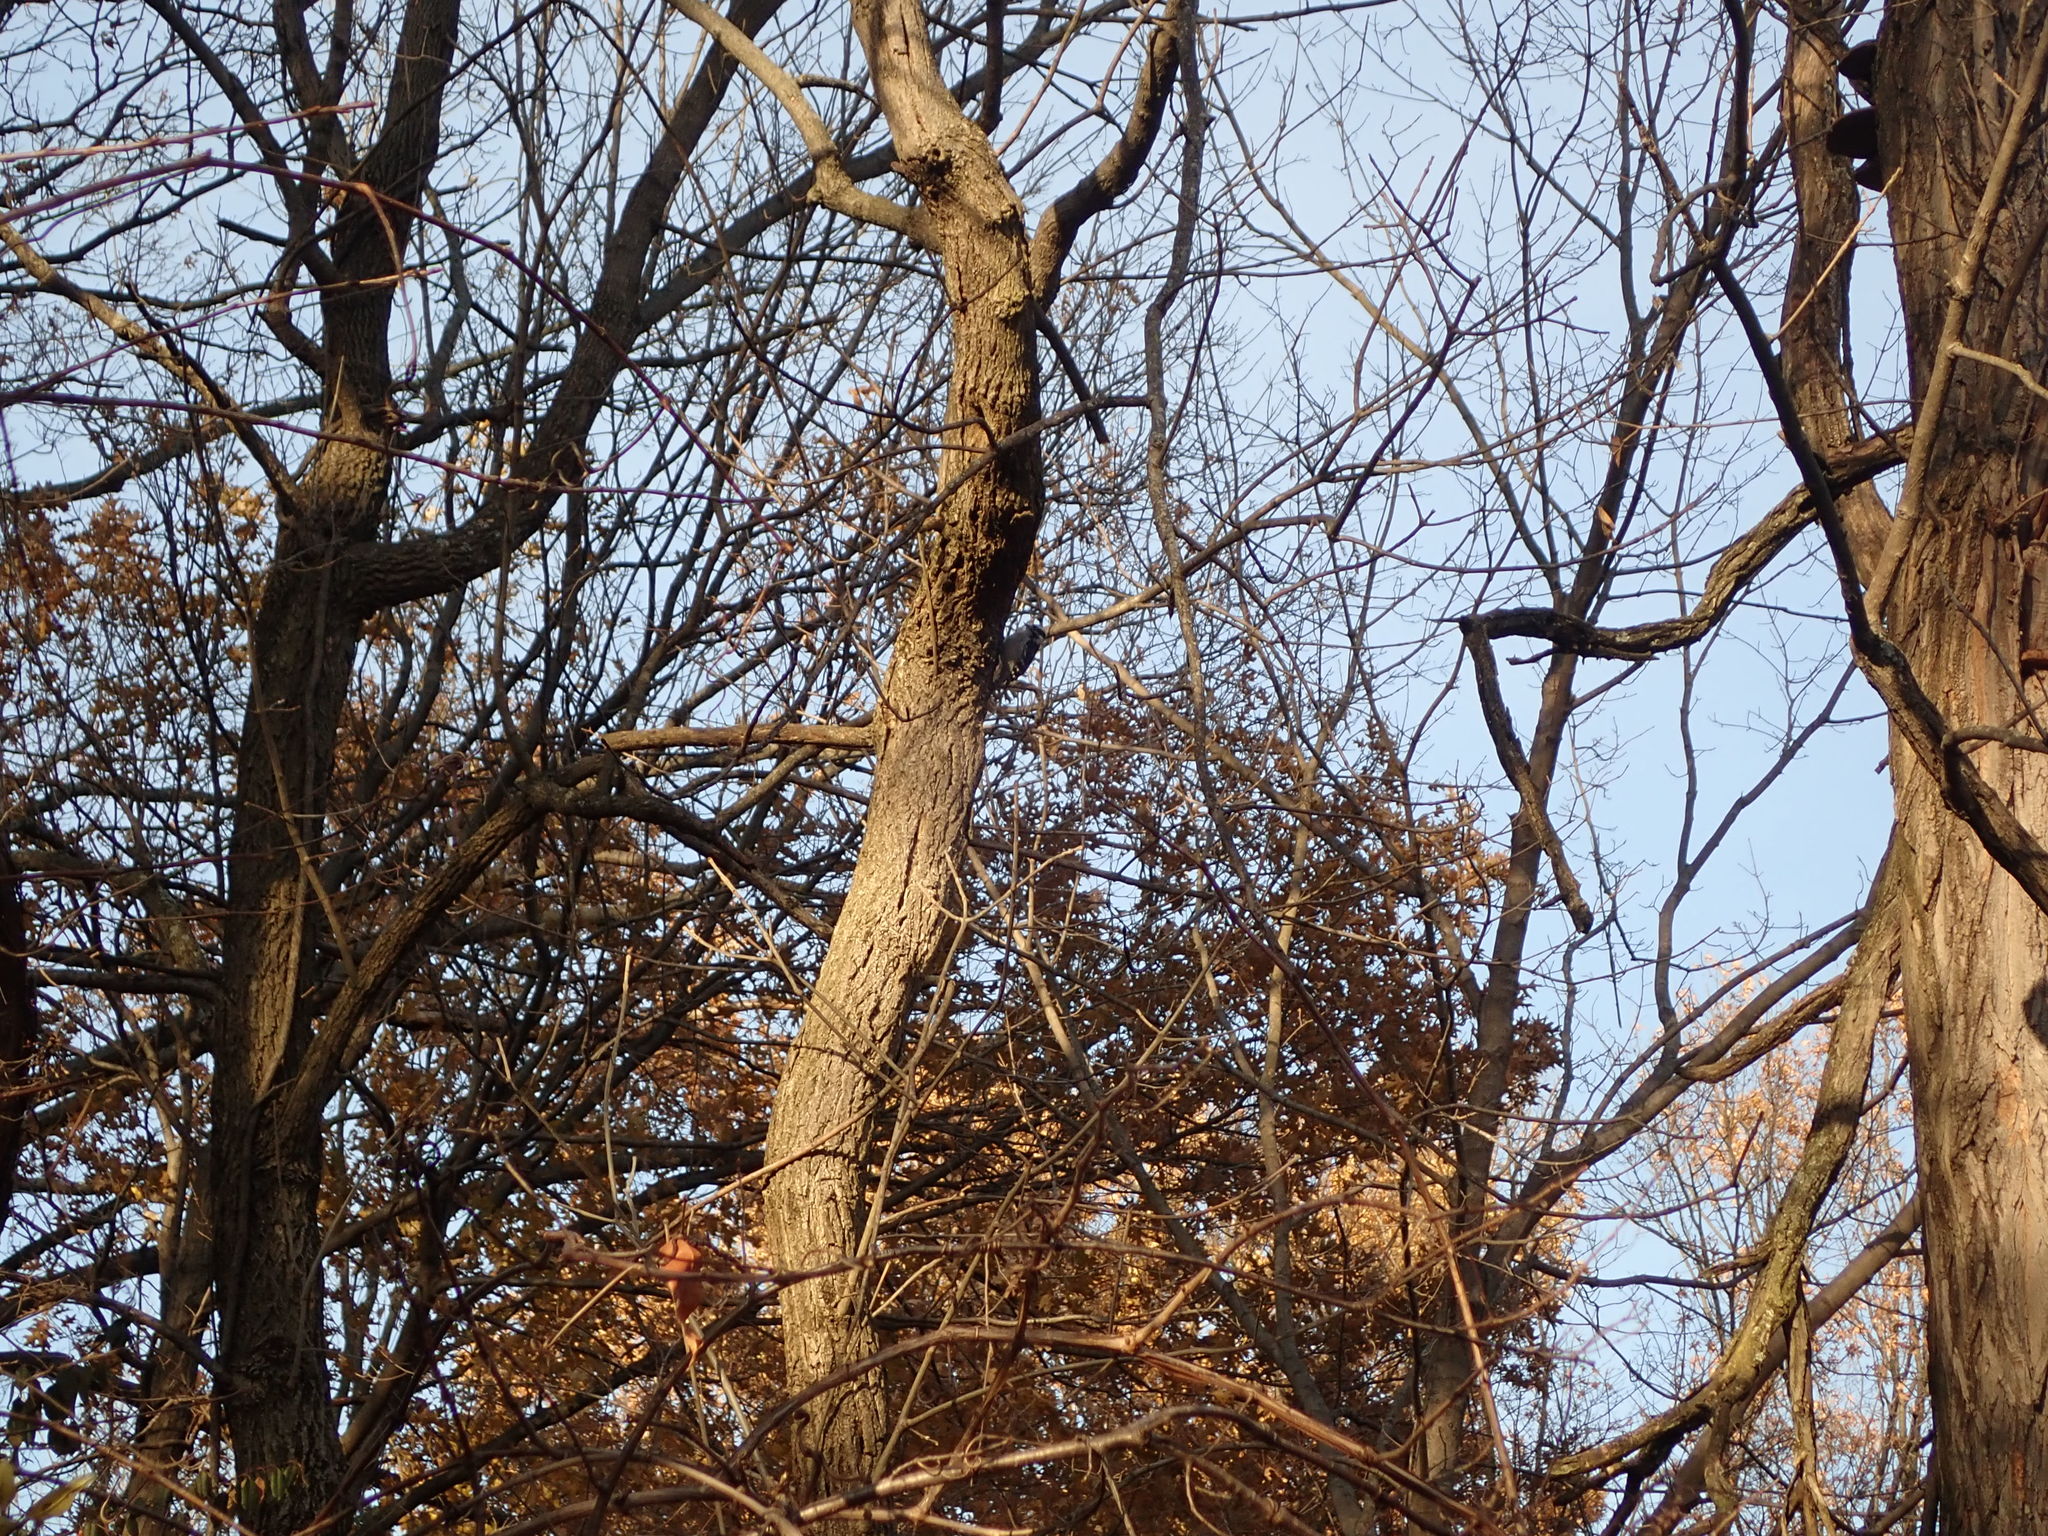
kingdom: Animalia
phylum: Chordata
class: Aves
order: Piciformes
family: Picidae
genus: Dryobates
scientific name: Dryobates pubescens
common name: Downy woodpecker
